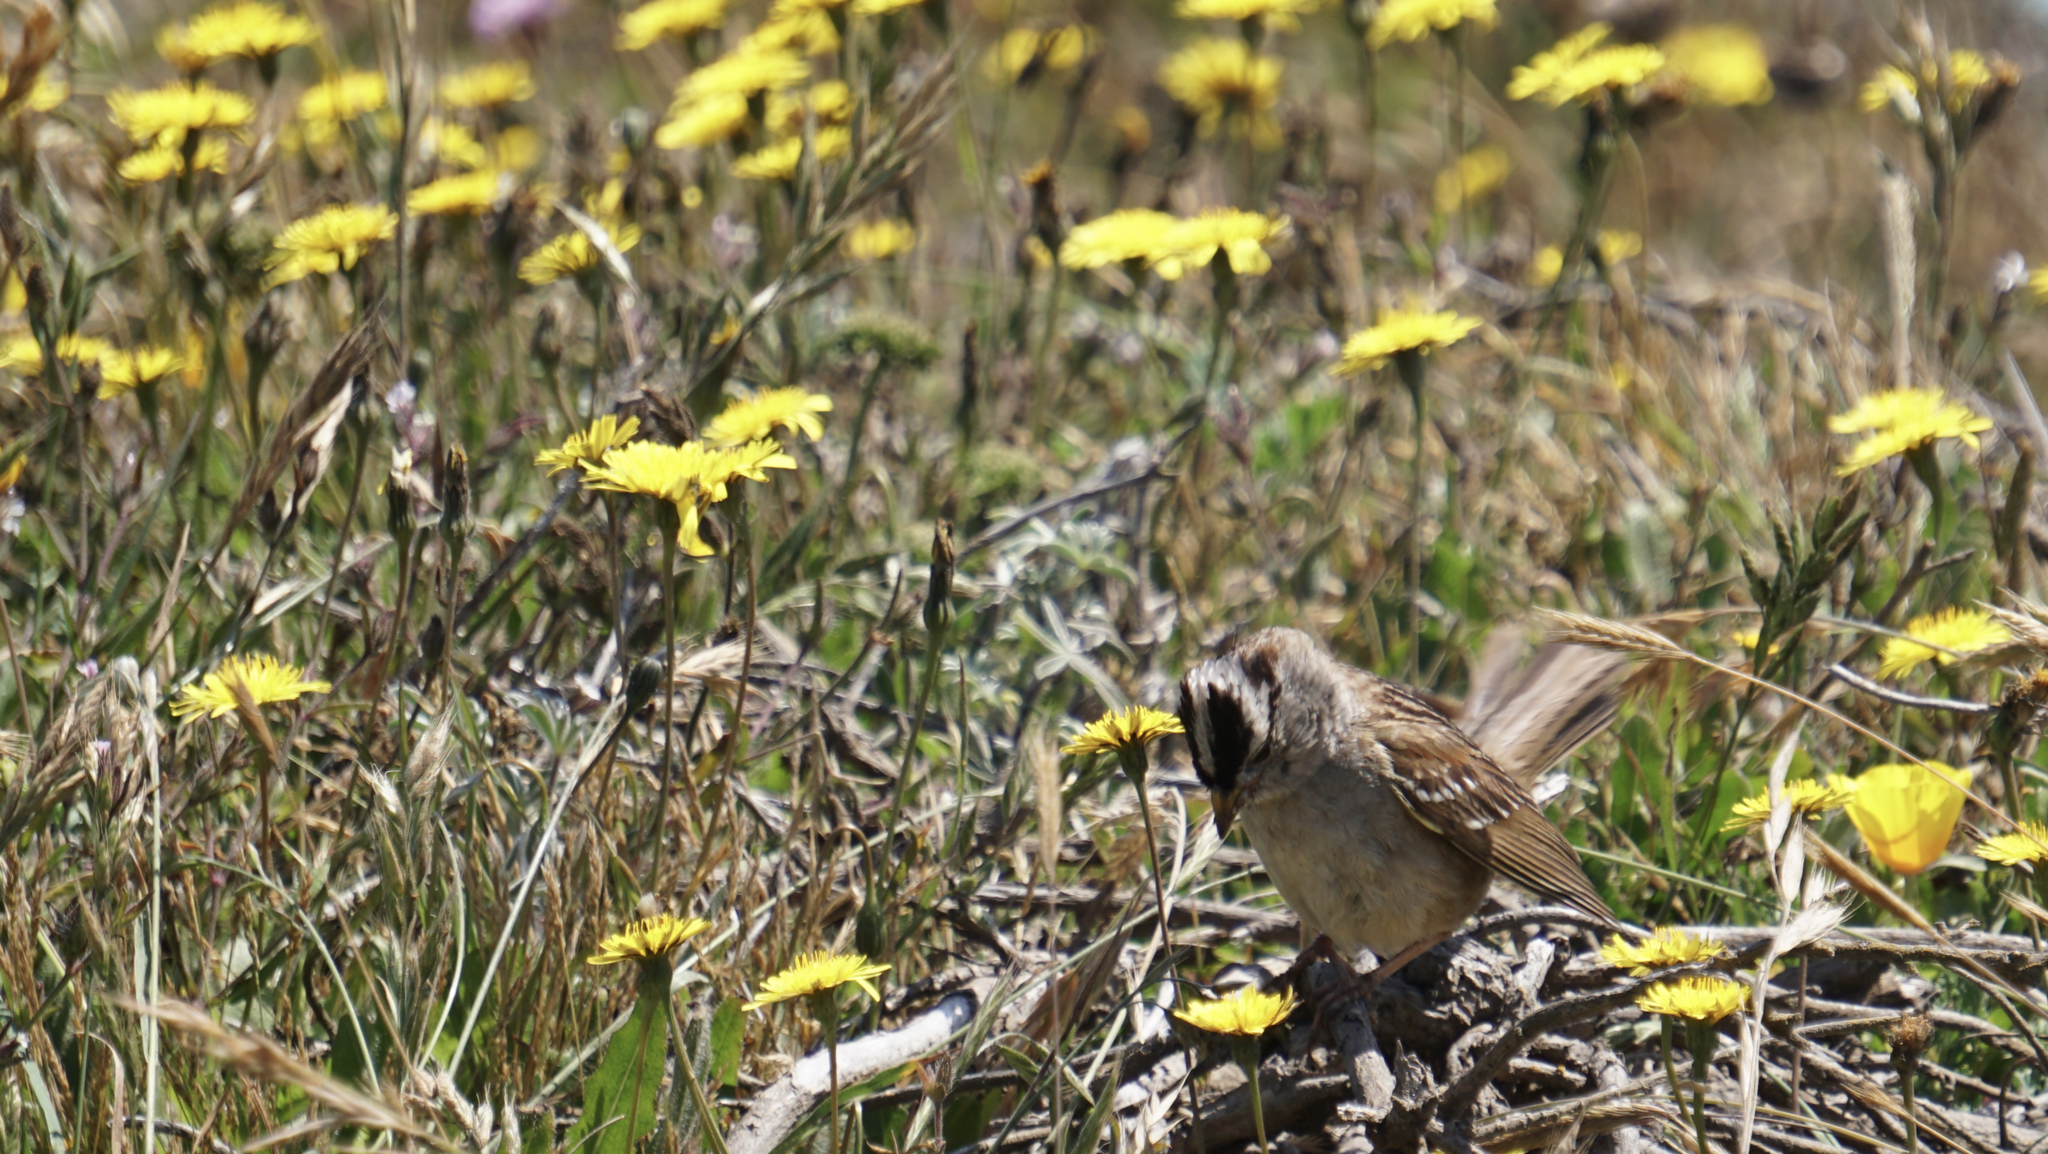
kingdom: Animalia
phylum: Chordata
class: Aves
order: Passeriformes
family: Passerellidae
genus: Zonotrichia
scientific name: Zonotrichia leucophrys
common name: White-crowned sparrow
